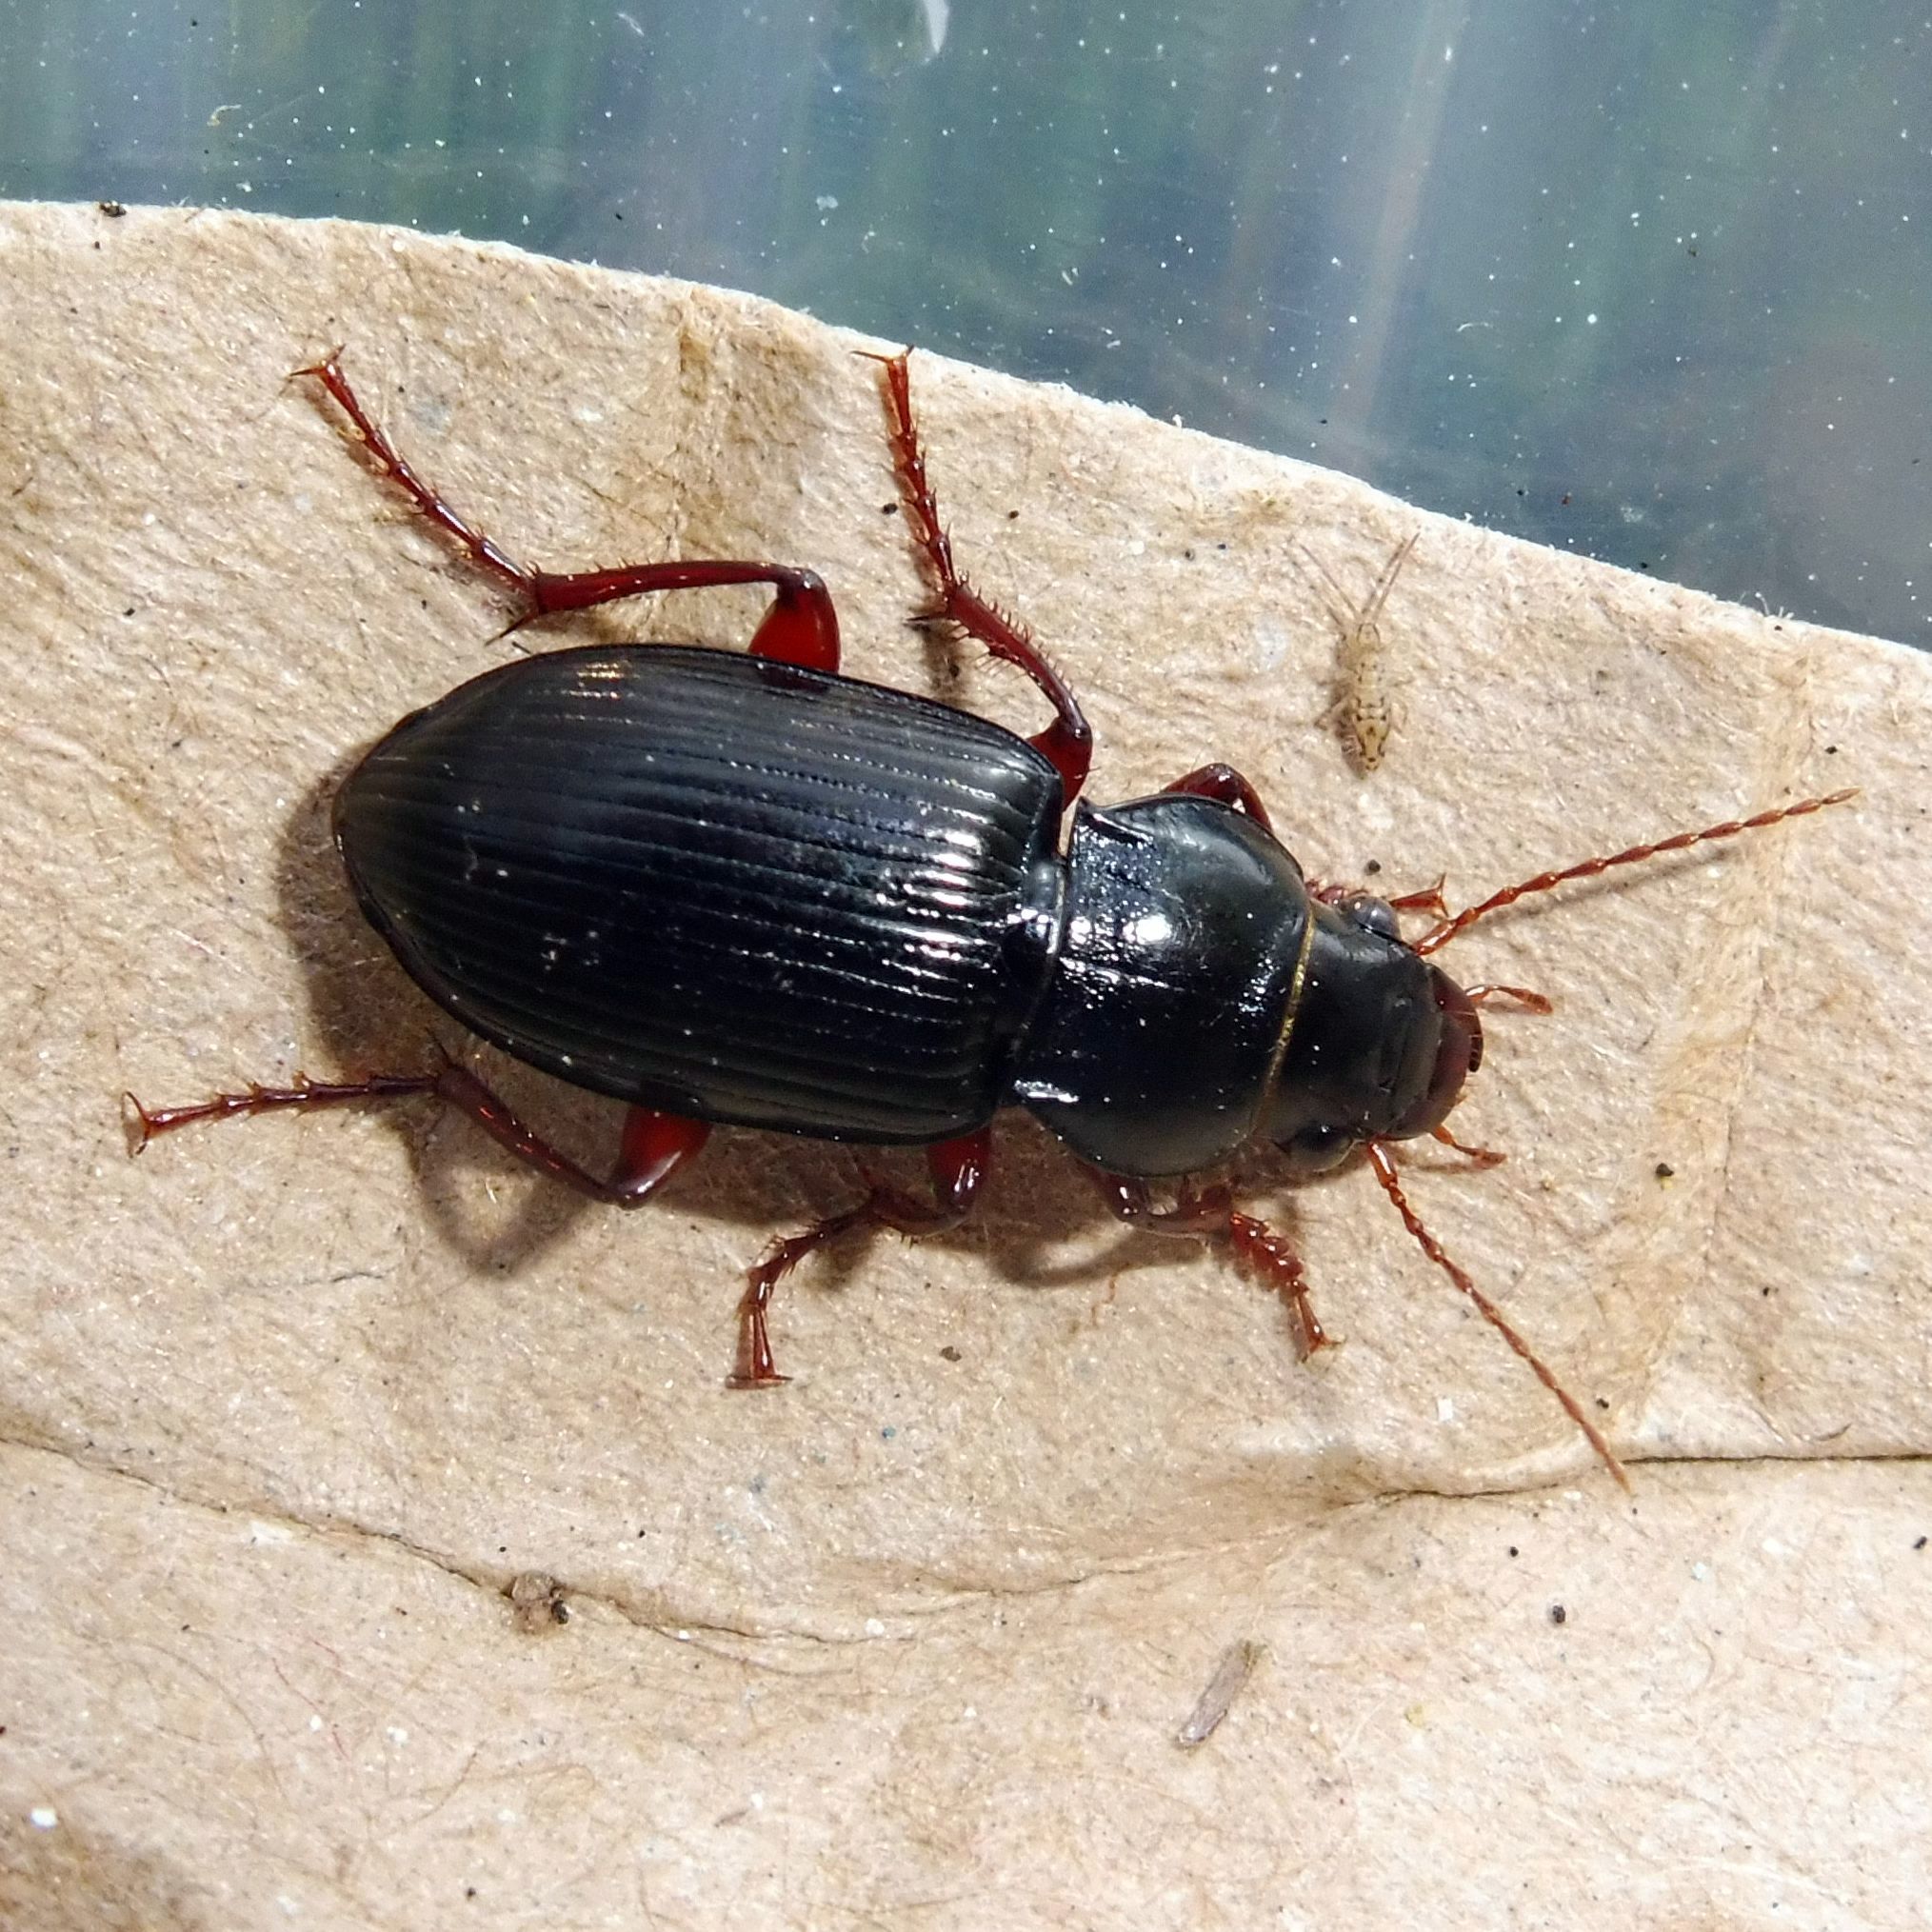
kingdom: Animalia
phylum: Arthropoda
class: Insecta
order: Coleoptera
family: Carabidae
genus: Amara
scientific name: Amara aulica
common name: Princely harp ground beetle
